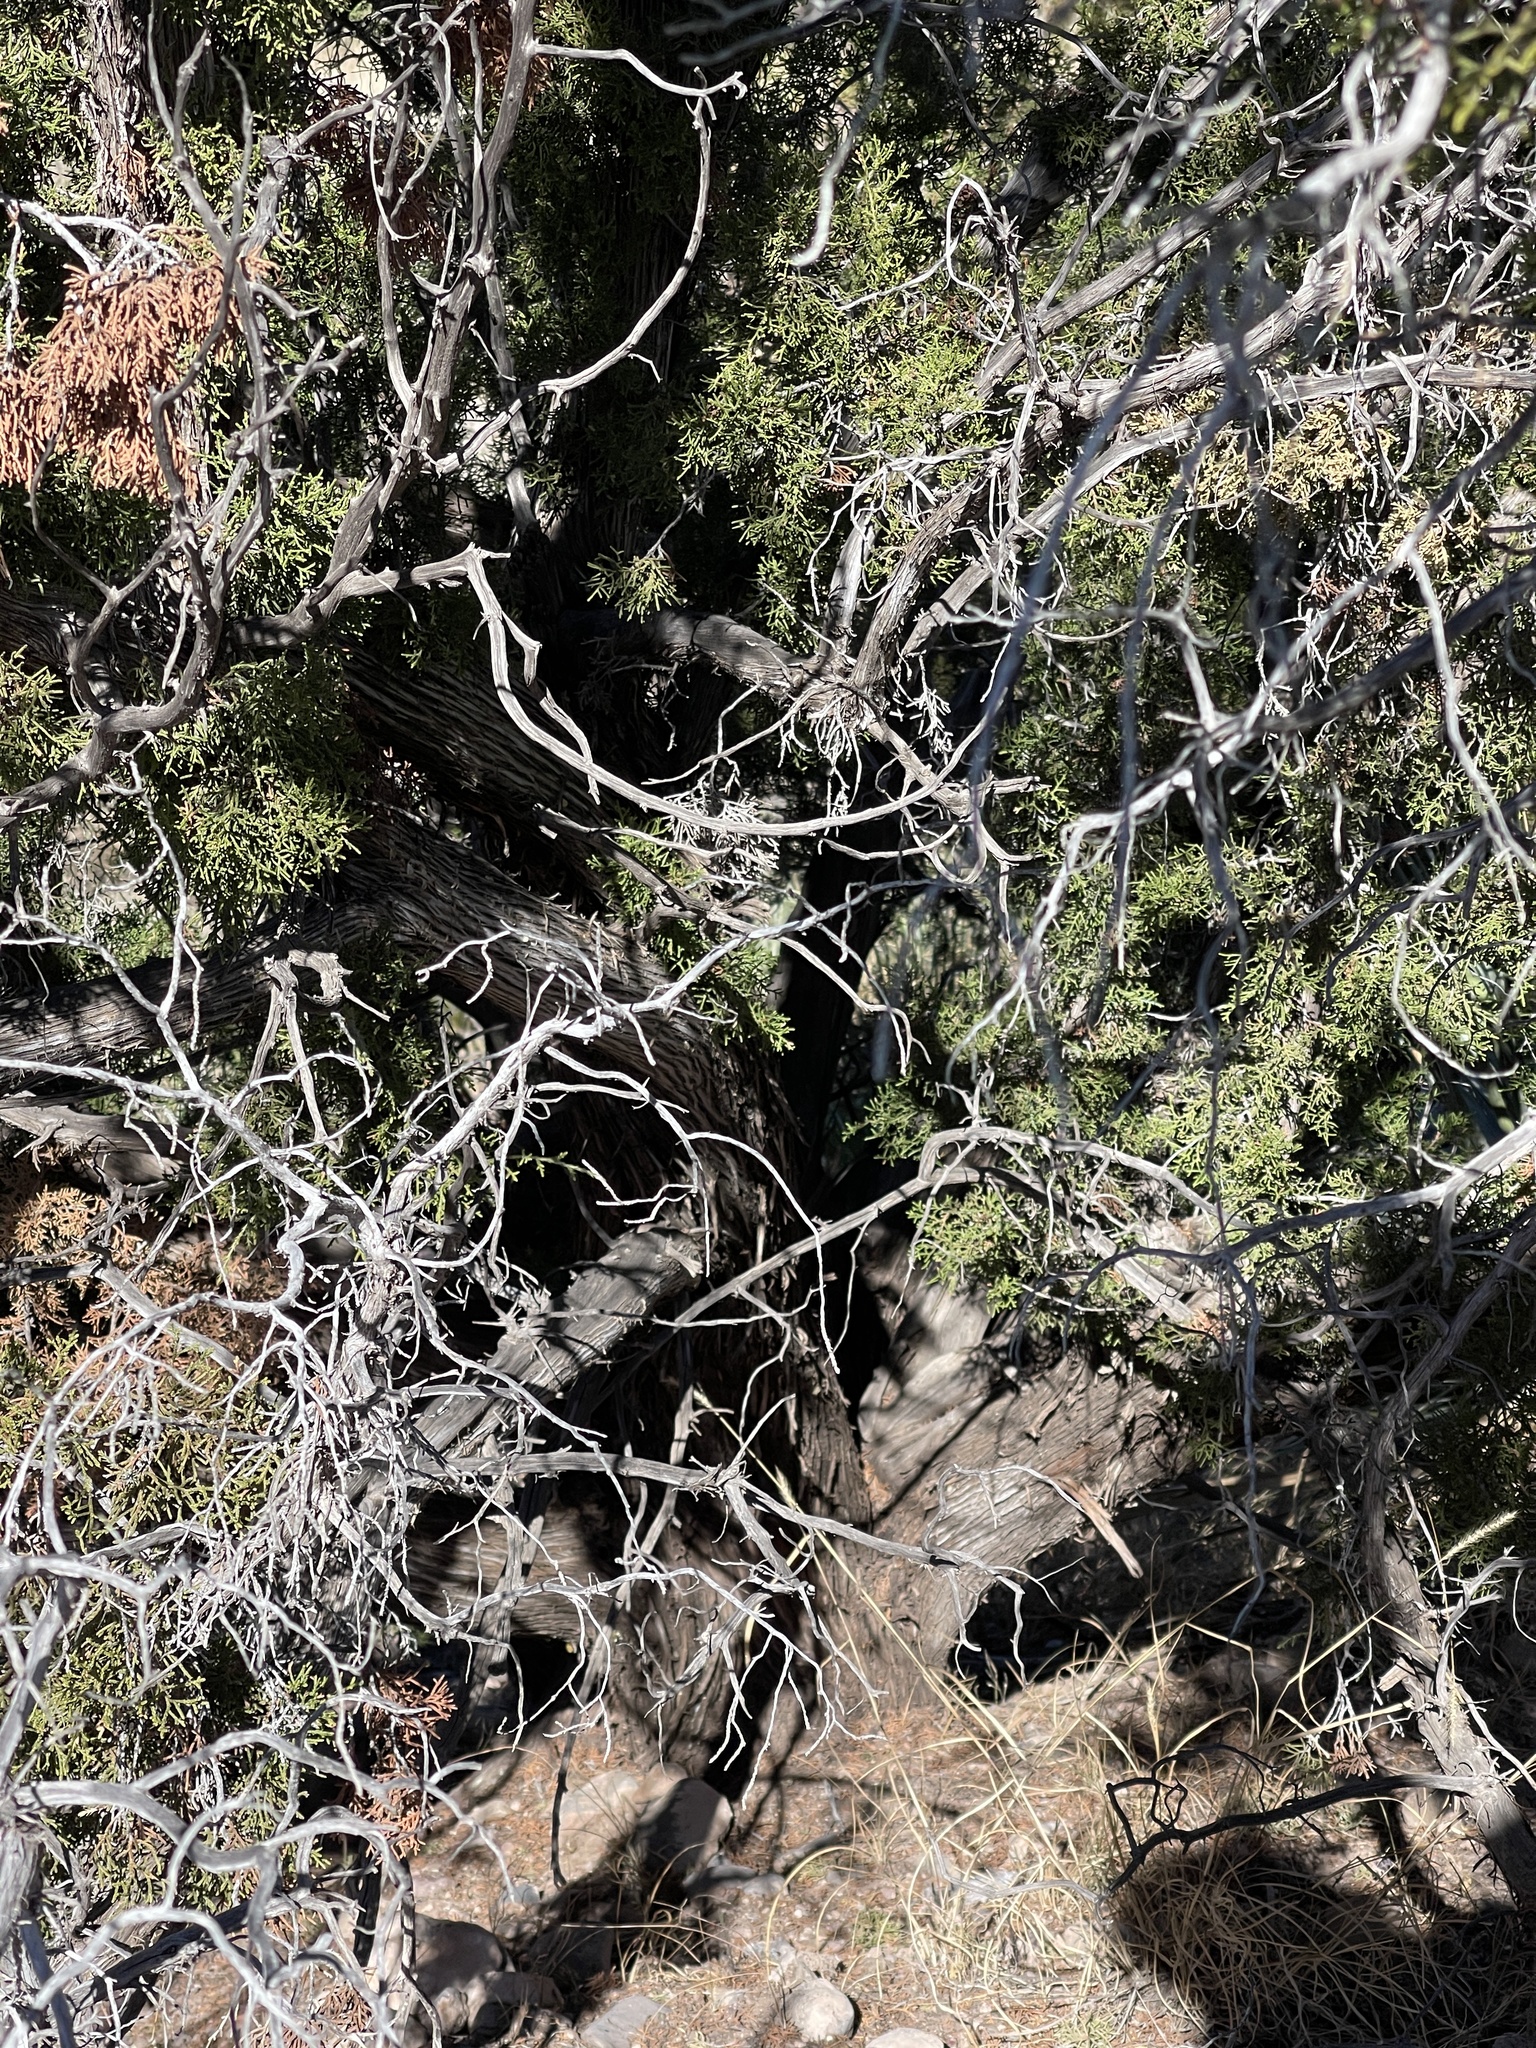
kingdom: Plantae
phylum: Tracheophyta
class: Pinopsida
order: Pinales
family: Cupressaceae
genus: Juniperus
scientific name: Juniperus monosperma
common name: One-seed juniper
